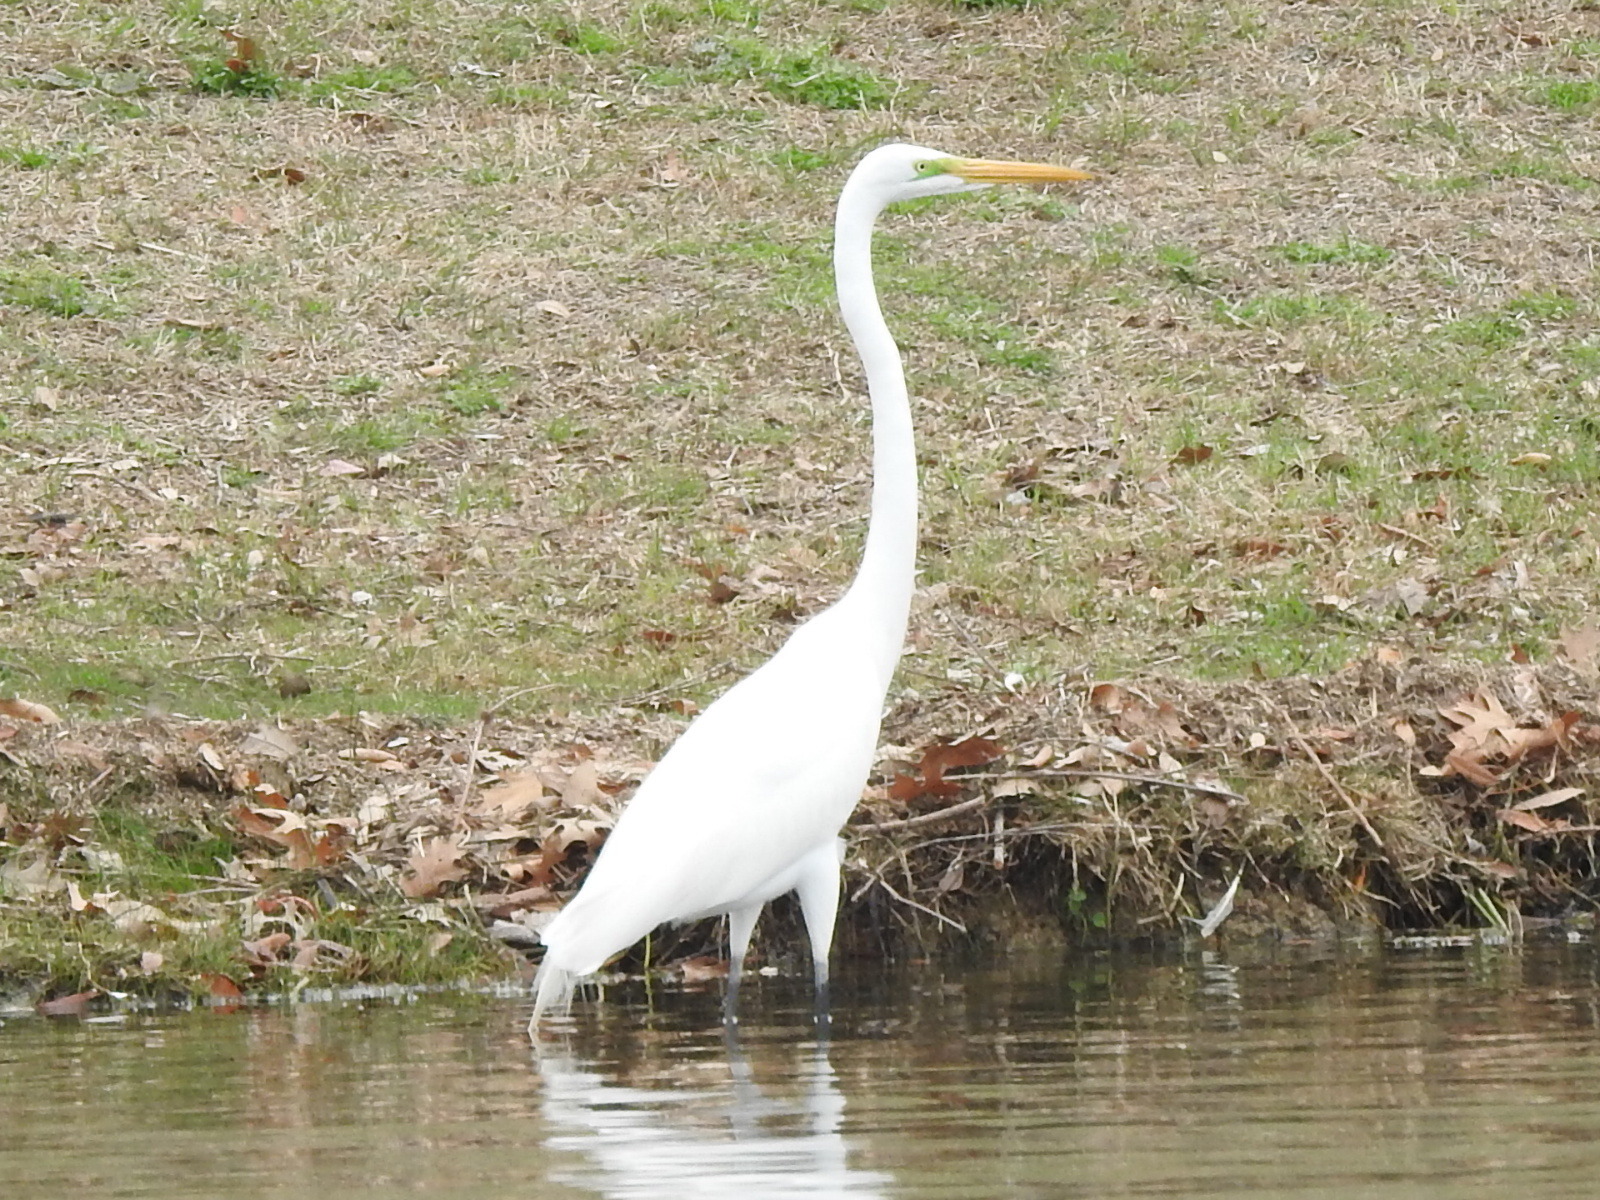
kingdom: Animalia
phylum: Chordata
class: Aves
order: Pelecaniformes
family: Ardeidae
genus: Ardea
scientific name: Ardea alba
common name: Great egret
